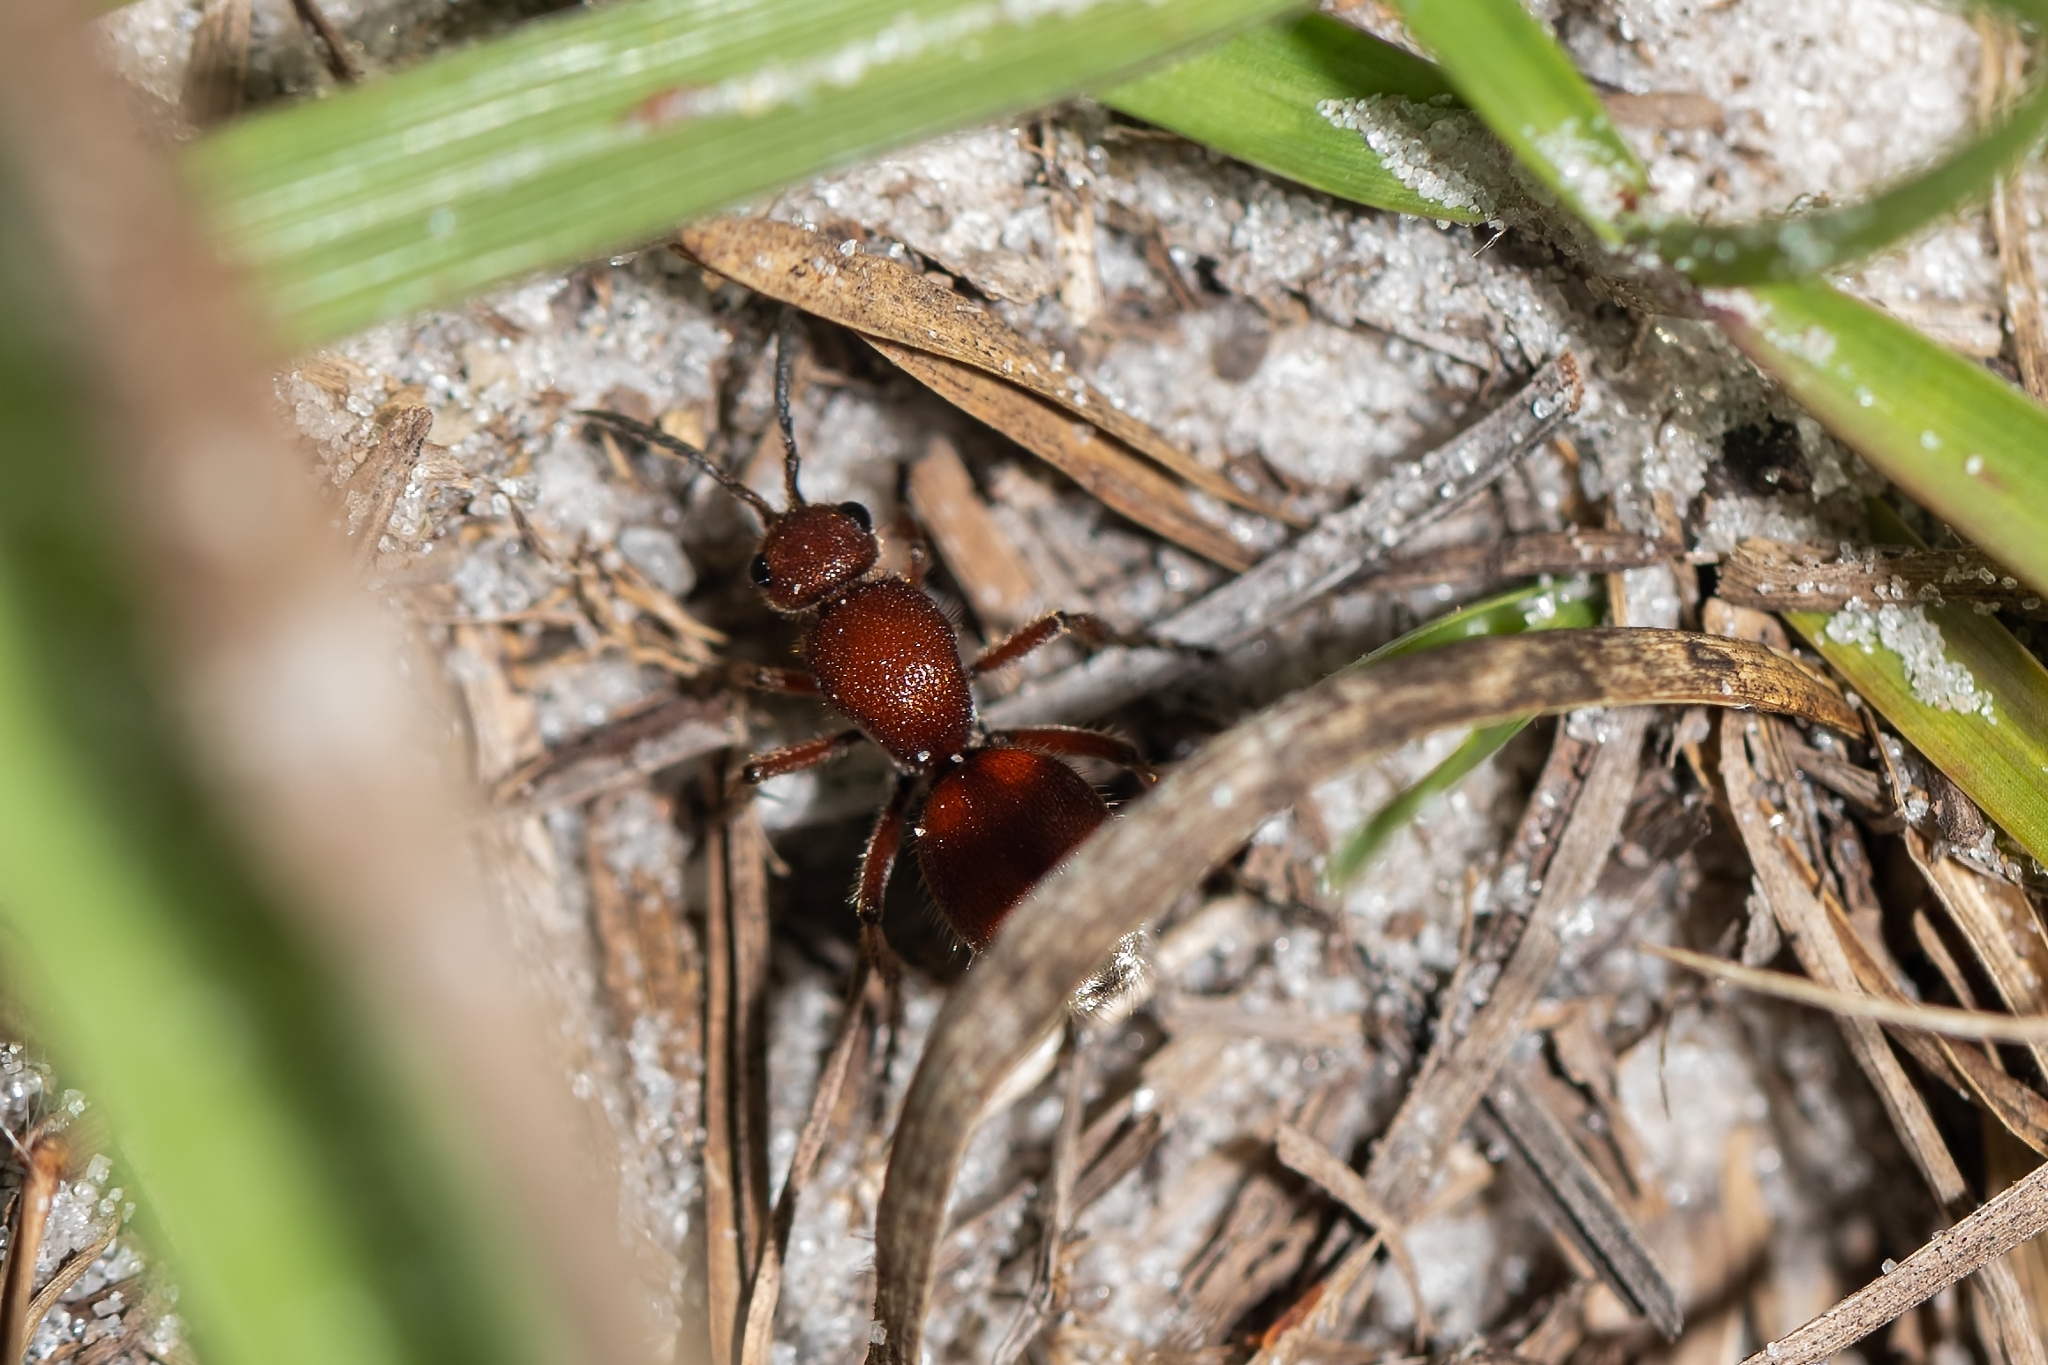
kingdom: Animalia
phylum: Arthropoda
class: Insecta
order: Hymenoptera
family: Mutillidae
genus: Dasymutilla
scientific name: Dasymutilla
